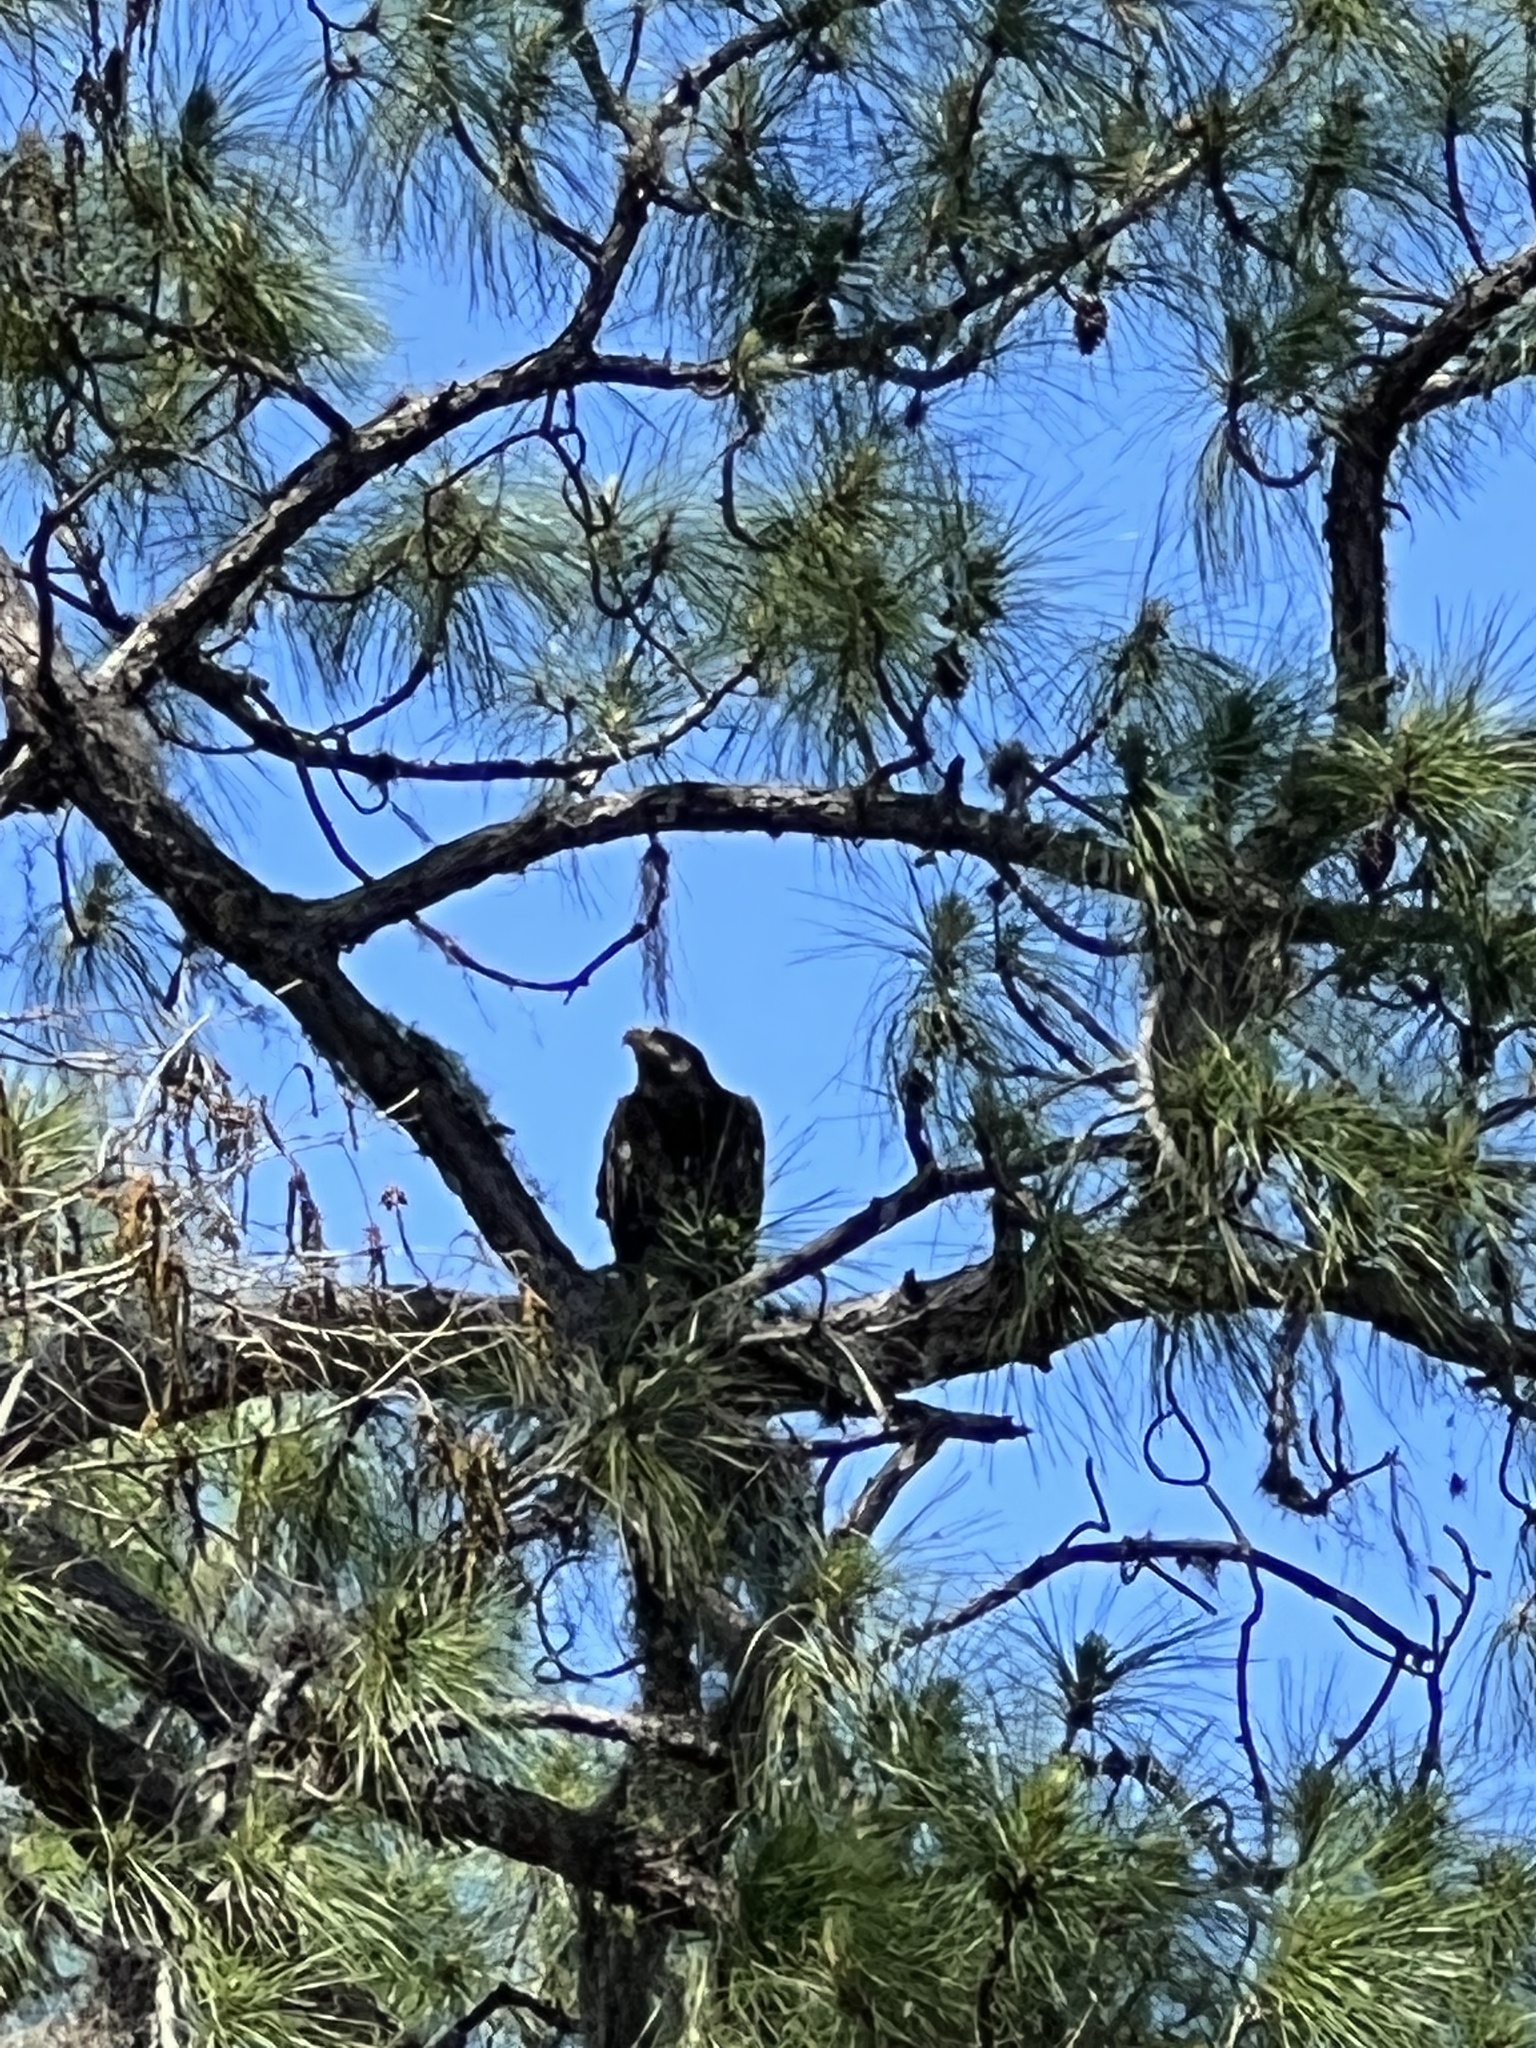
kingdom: Animalia
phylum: Chordata
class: Aves
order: Accipitriformes
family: Accipitridae
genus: Haliaeetus
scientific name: Haliaeetus leucocephalus
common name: Bald eagle
